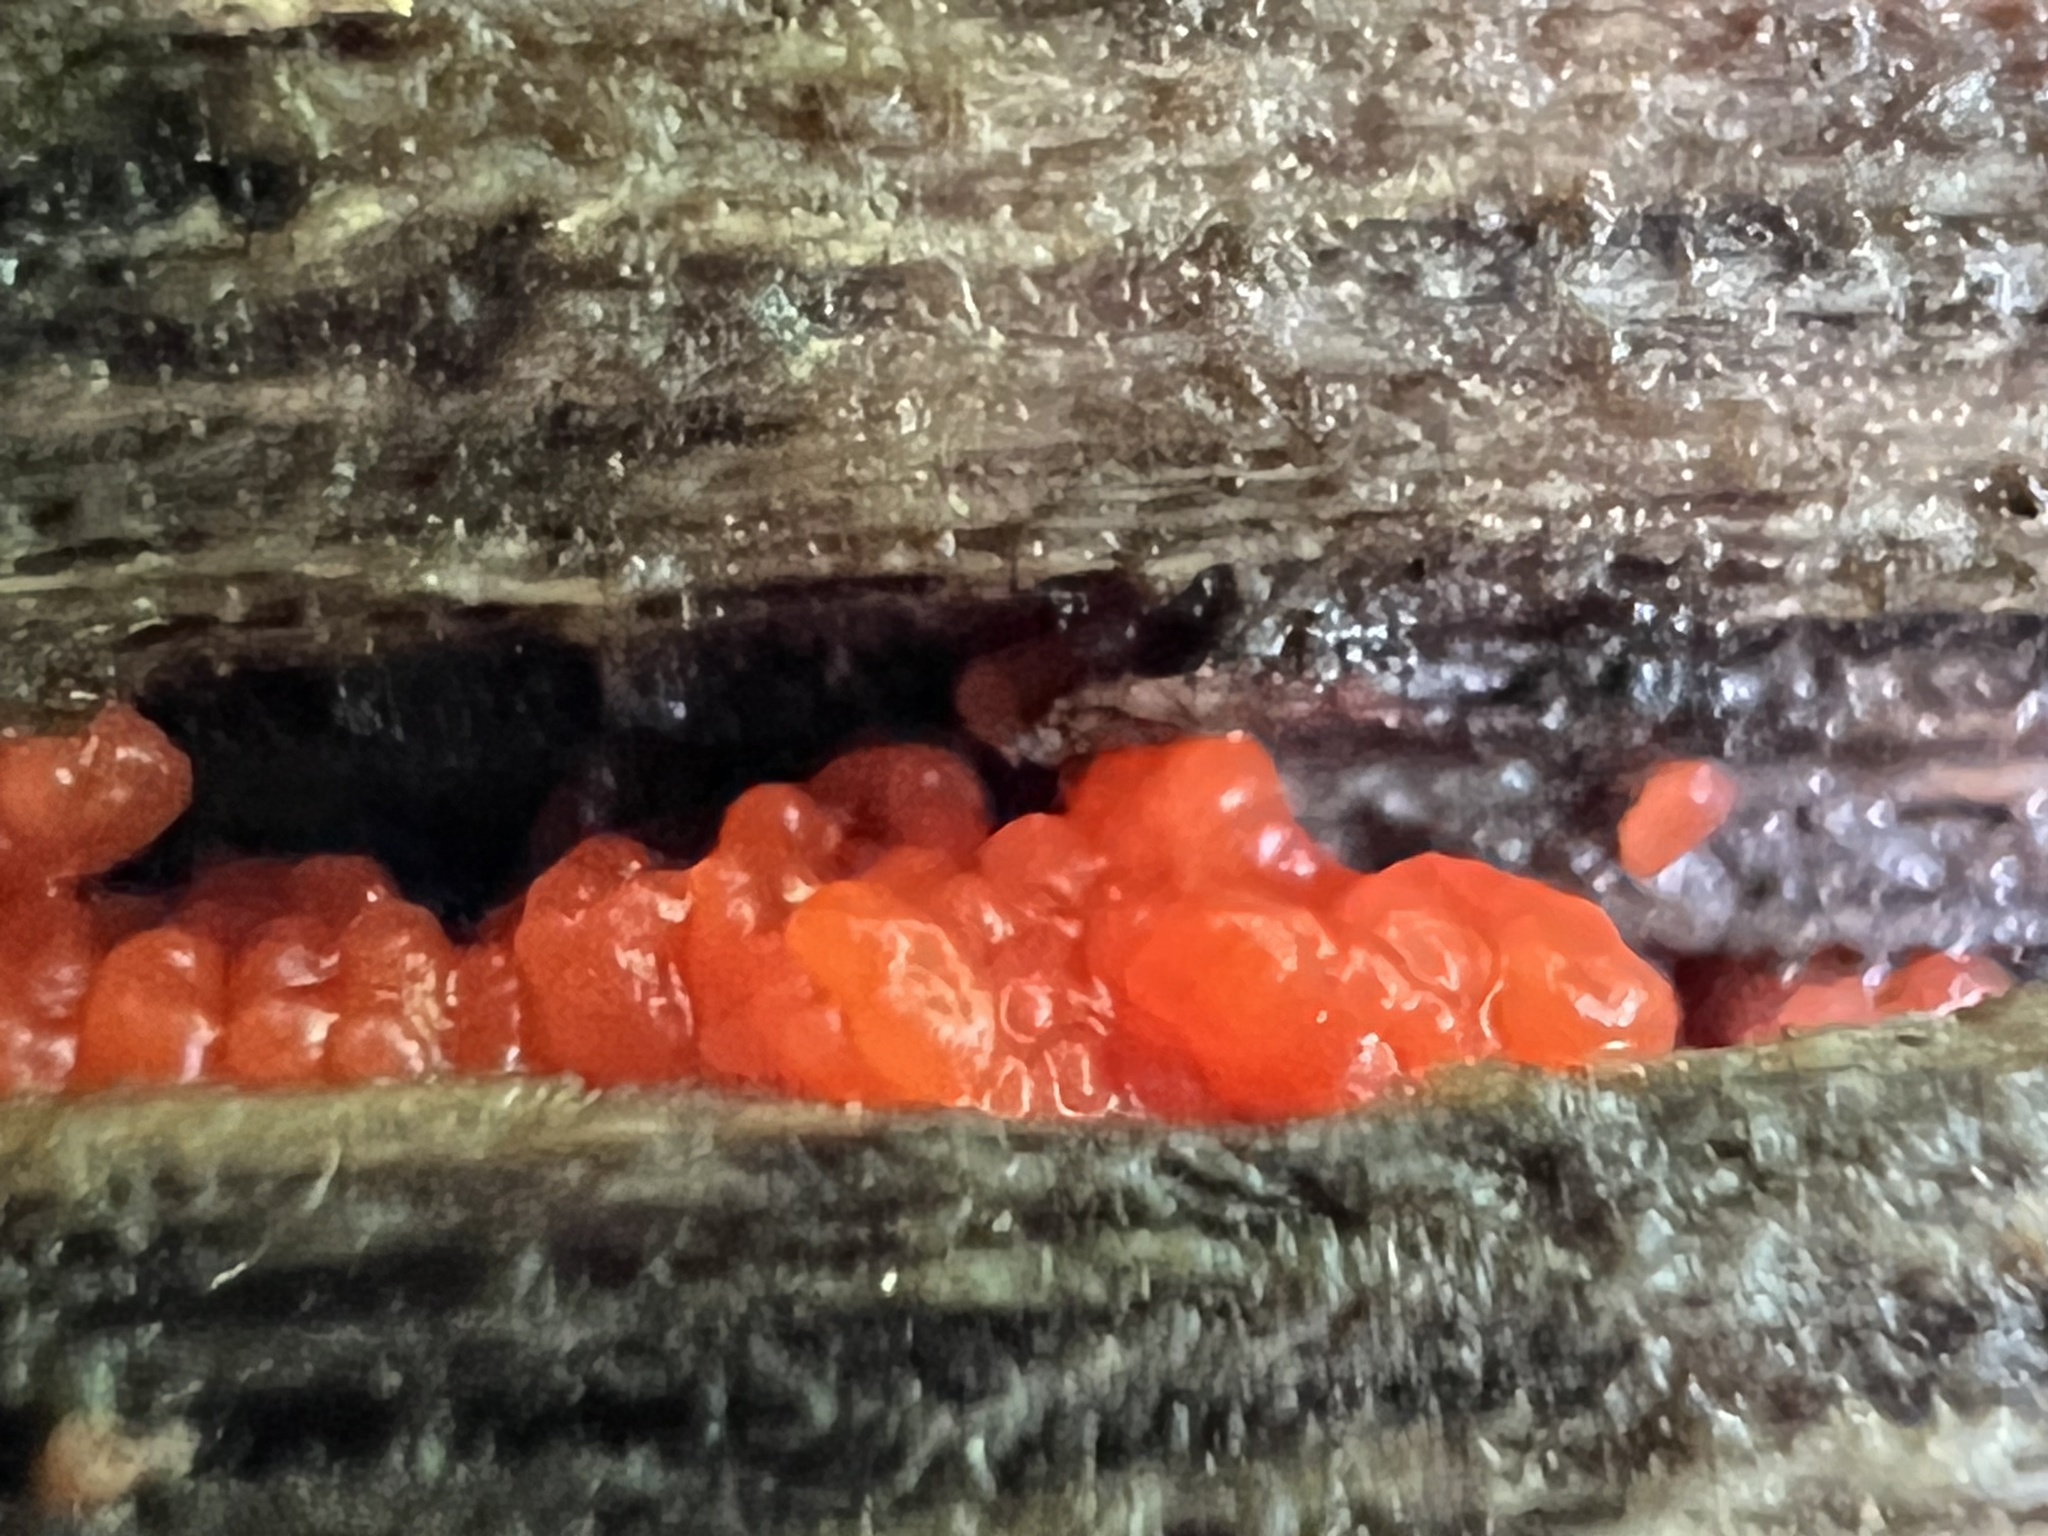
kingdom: Fungi
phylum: Basidiomycota
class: Agaricomycetes
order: Cantharellales
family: Tulasnellaceae
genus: Tulasnella
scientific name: Tulasnella aurantiaca
